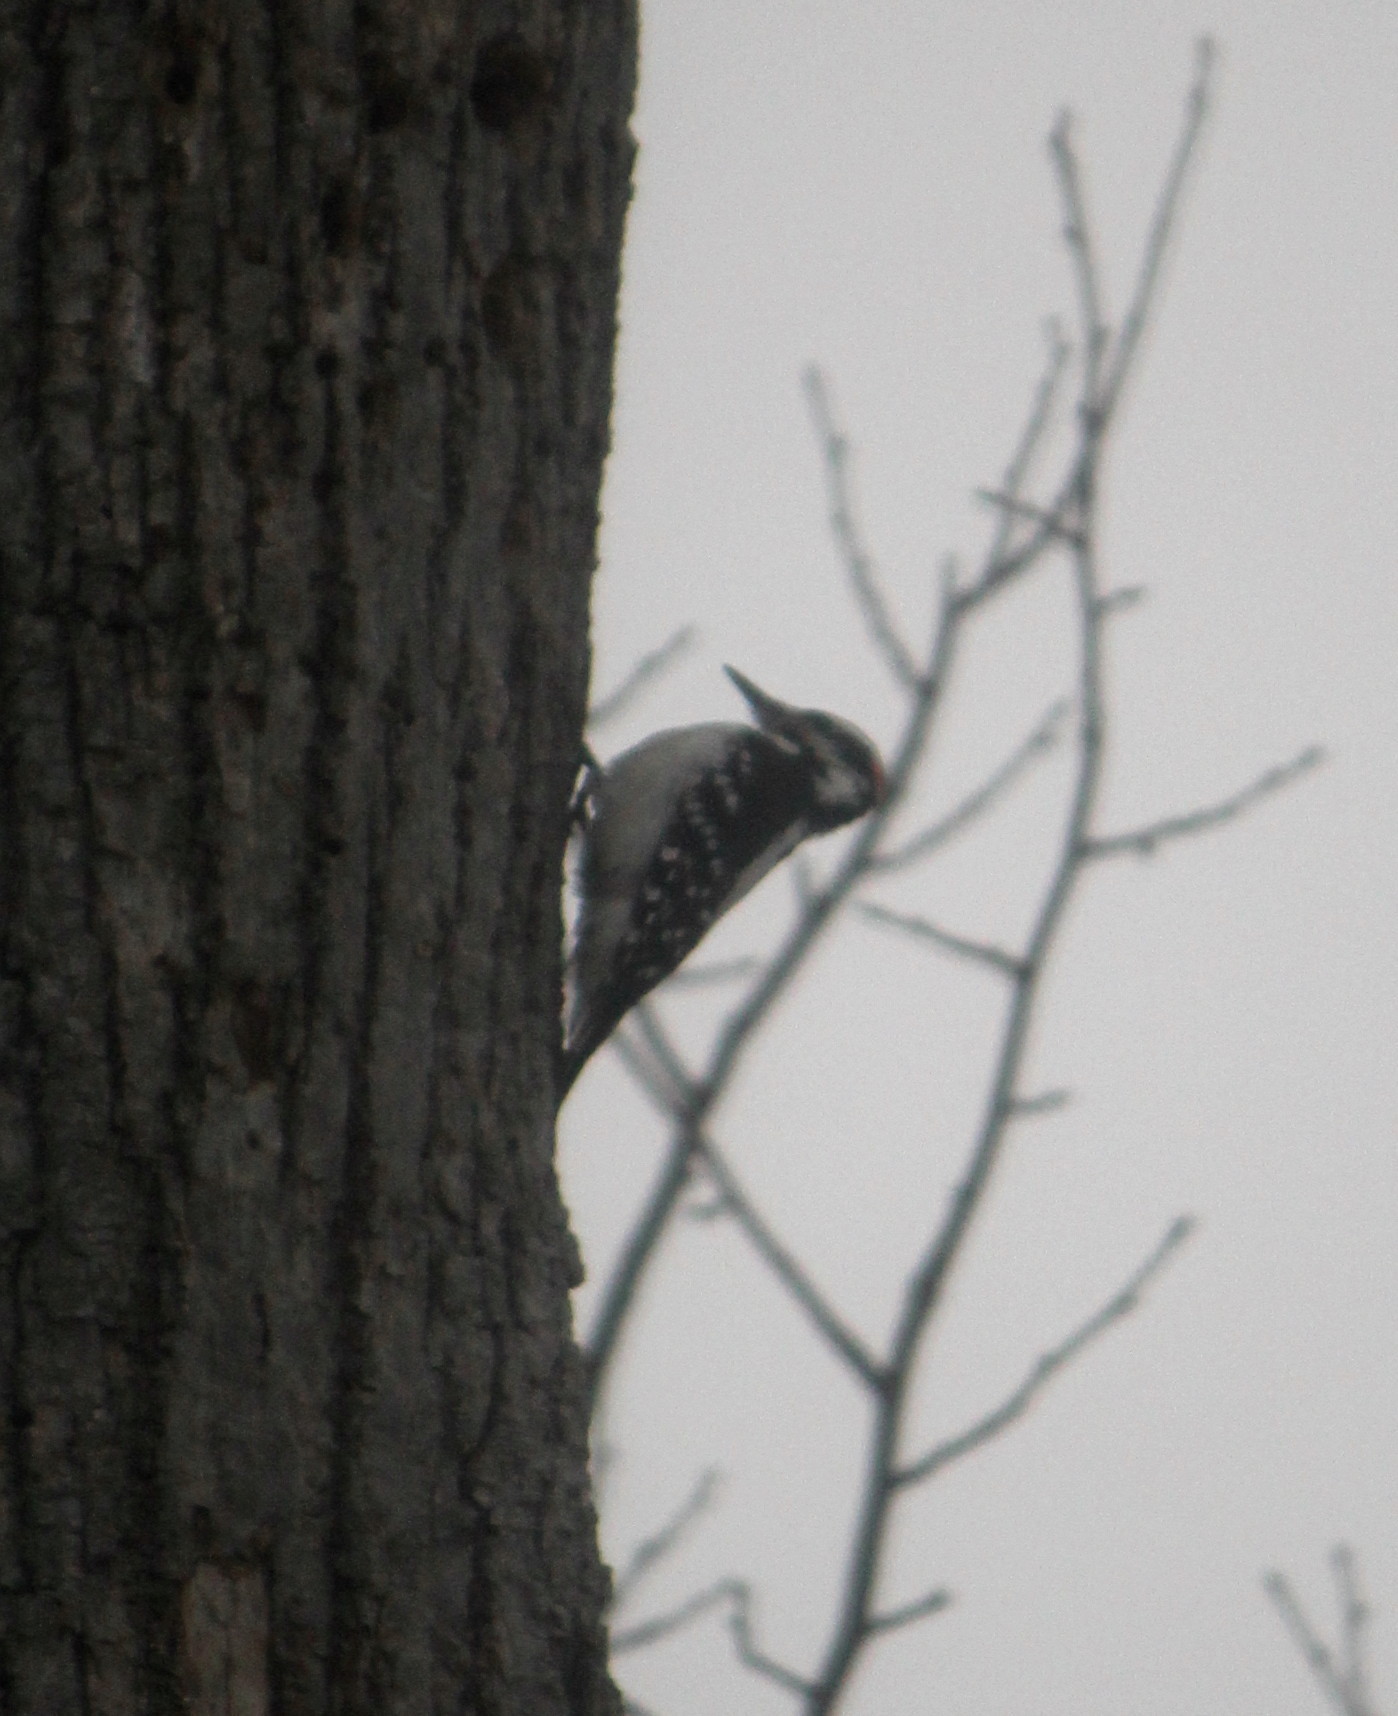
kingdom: Animalia
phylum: Chordata
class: Aves
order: Piciformes
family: Picidae
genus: Leuconotopicus
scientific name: Leuconotopicus villosus
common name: Hairy woodpecker
